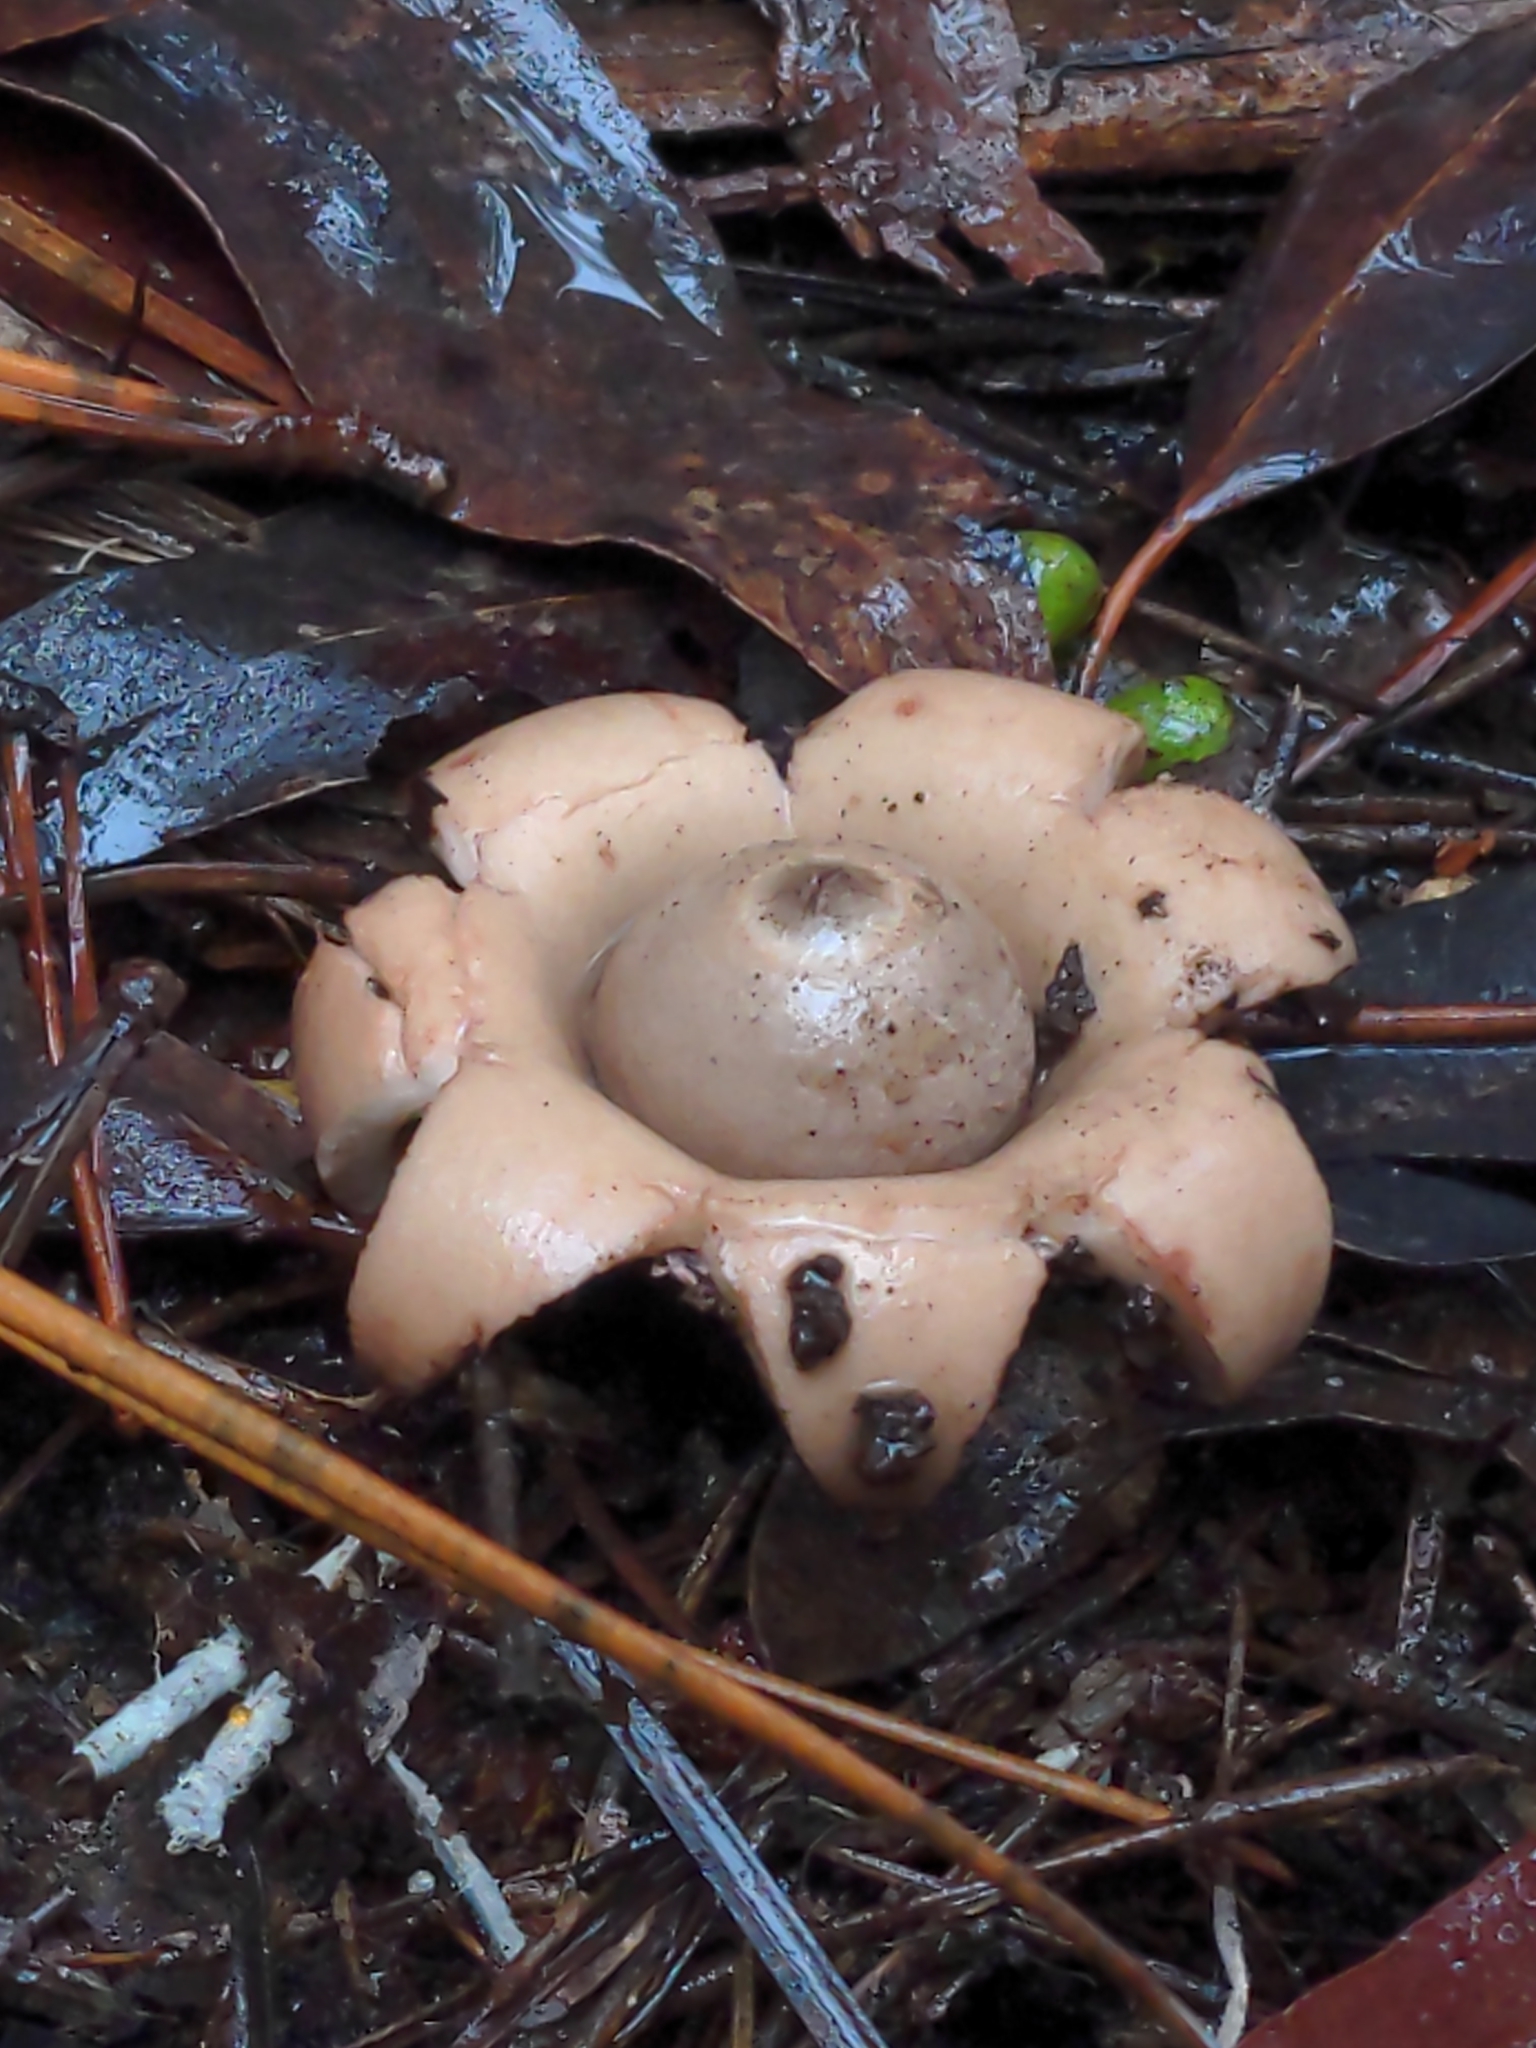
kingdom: Fungi
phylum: Basidiomycota
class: Agaricomycetes
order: Geastrales
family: Geastraceae
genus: Geastrum
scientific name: Geastrum triplex
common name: Collared earthstar
